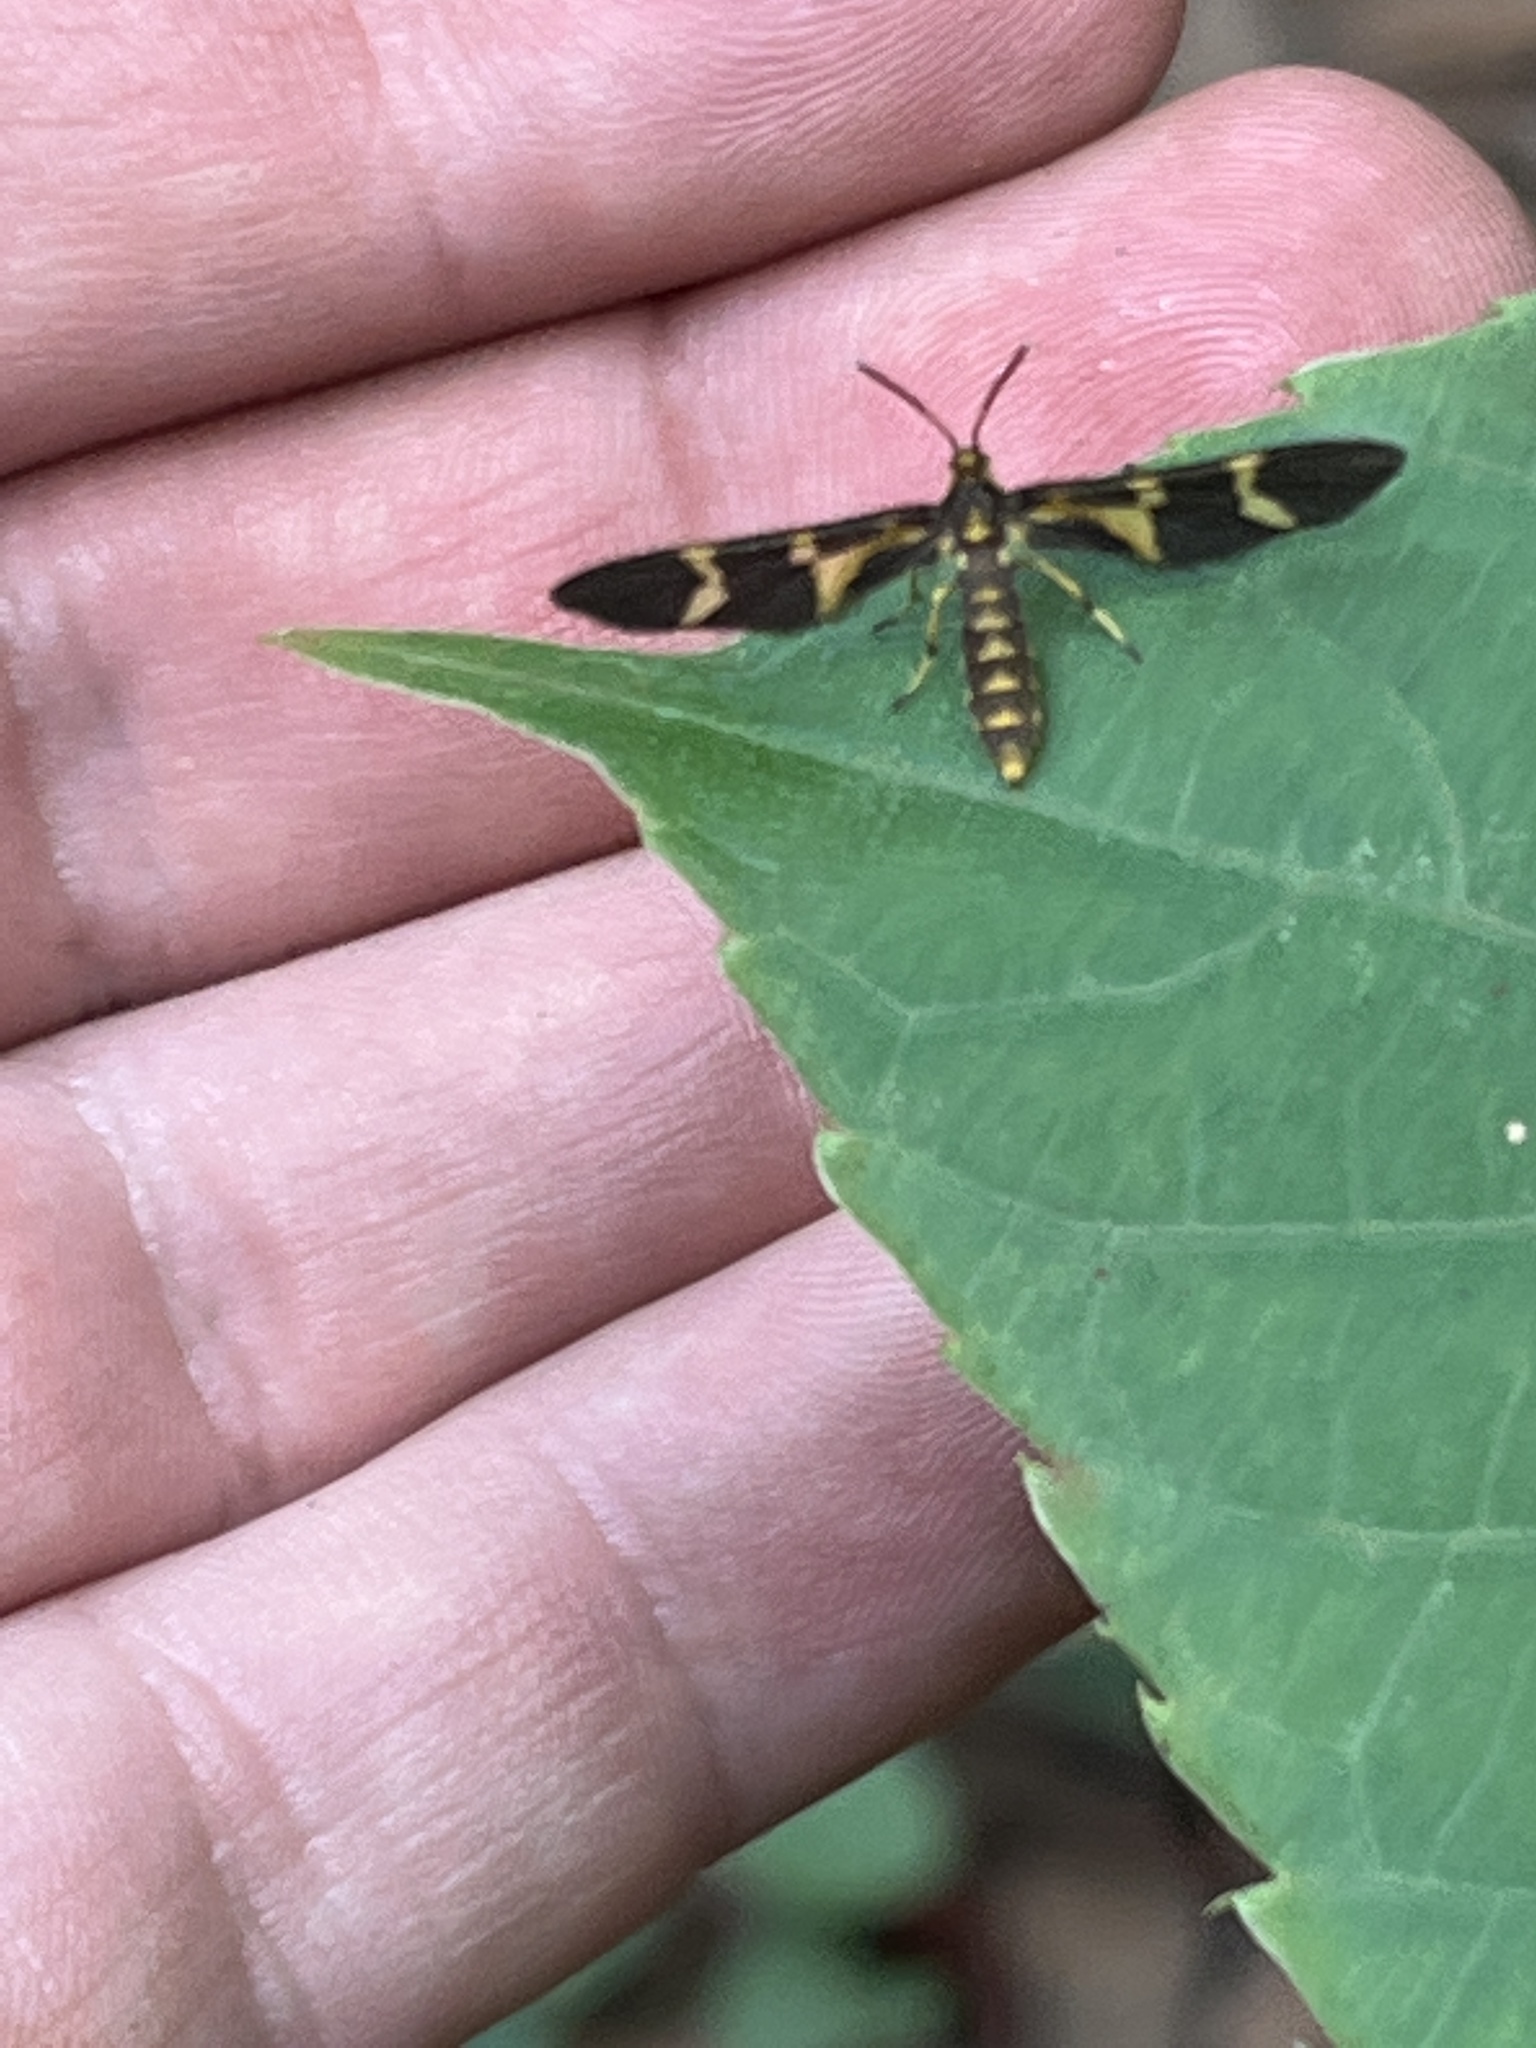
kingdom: Animalia
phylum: Arthropoda
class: Insecta
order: Lepidoptera
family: Erebidae
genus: Pseudonaclia
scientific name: Pseudonaclia bifasciata
